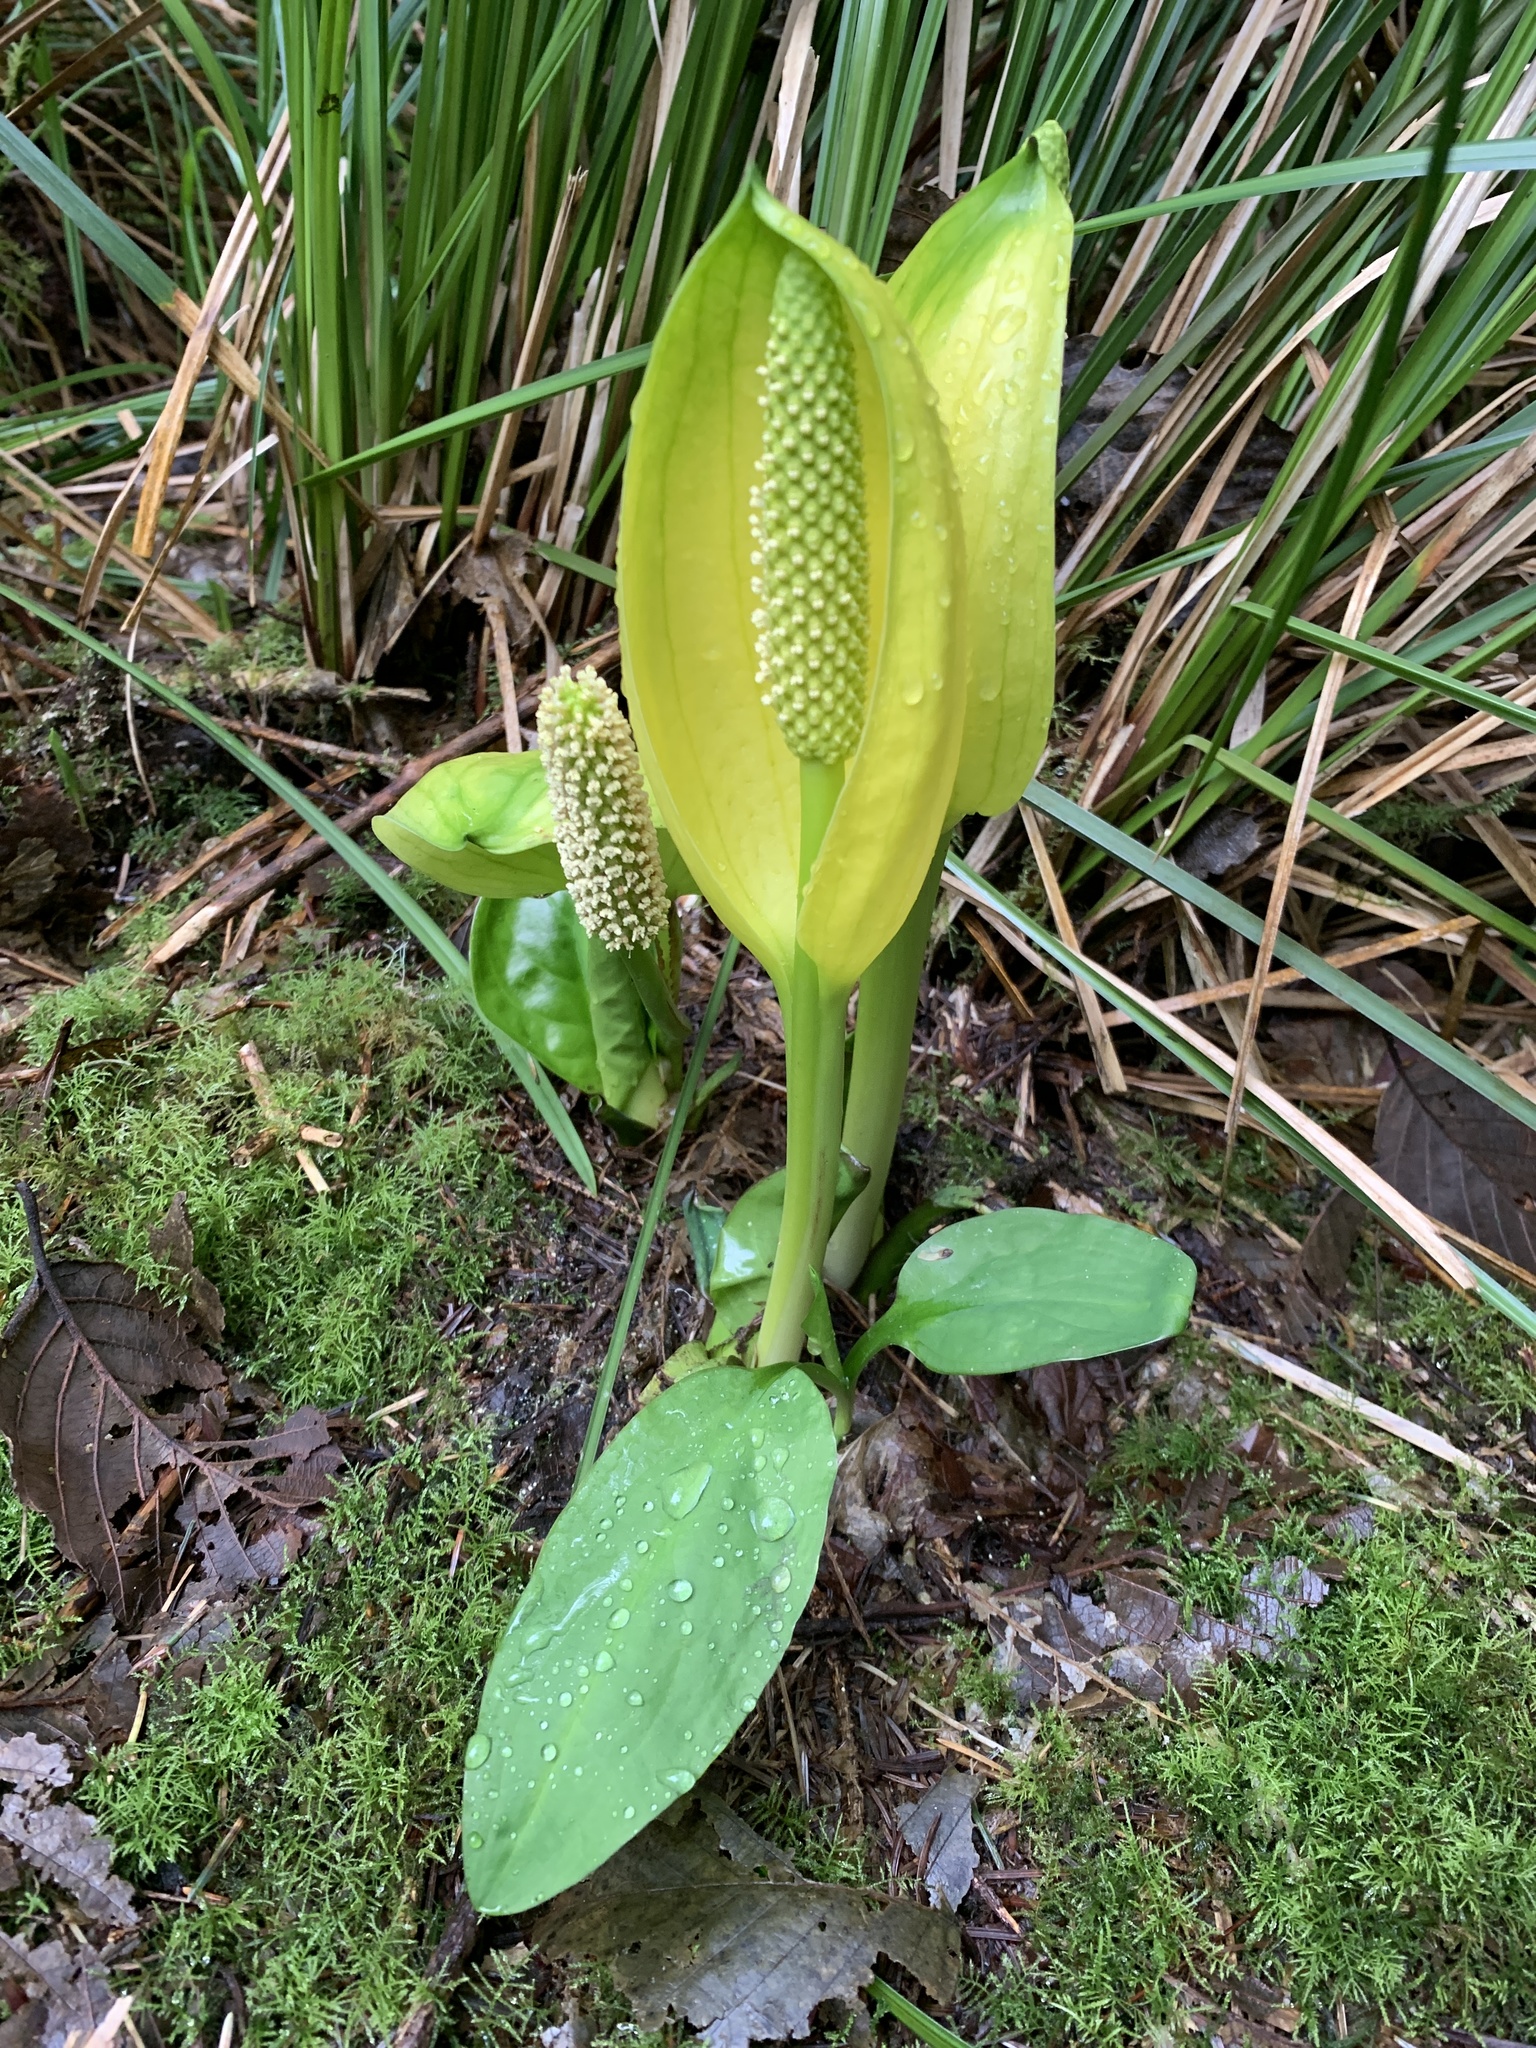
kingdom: Plantae
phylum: Tracheophyta
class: Liliopsida
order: Alismatales
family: Araceae
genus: Lysichiton
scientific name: Lysichiton americanus
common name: American skunk cabbage
